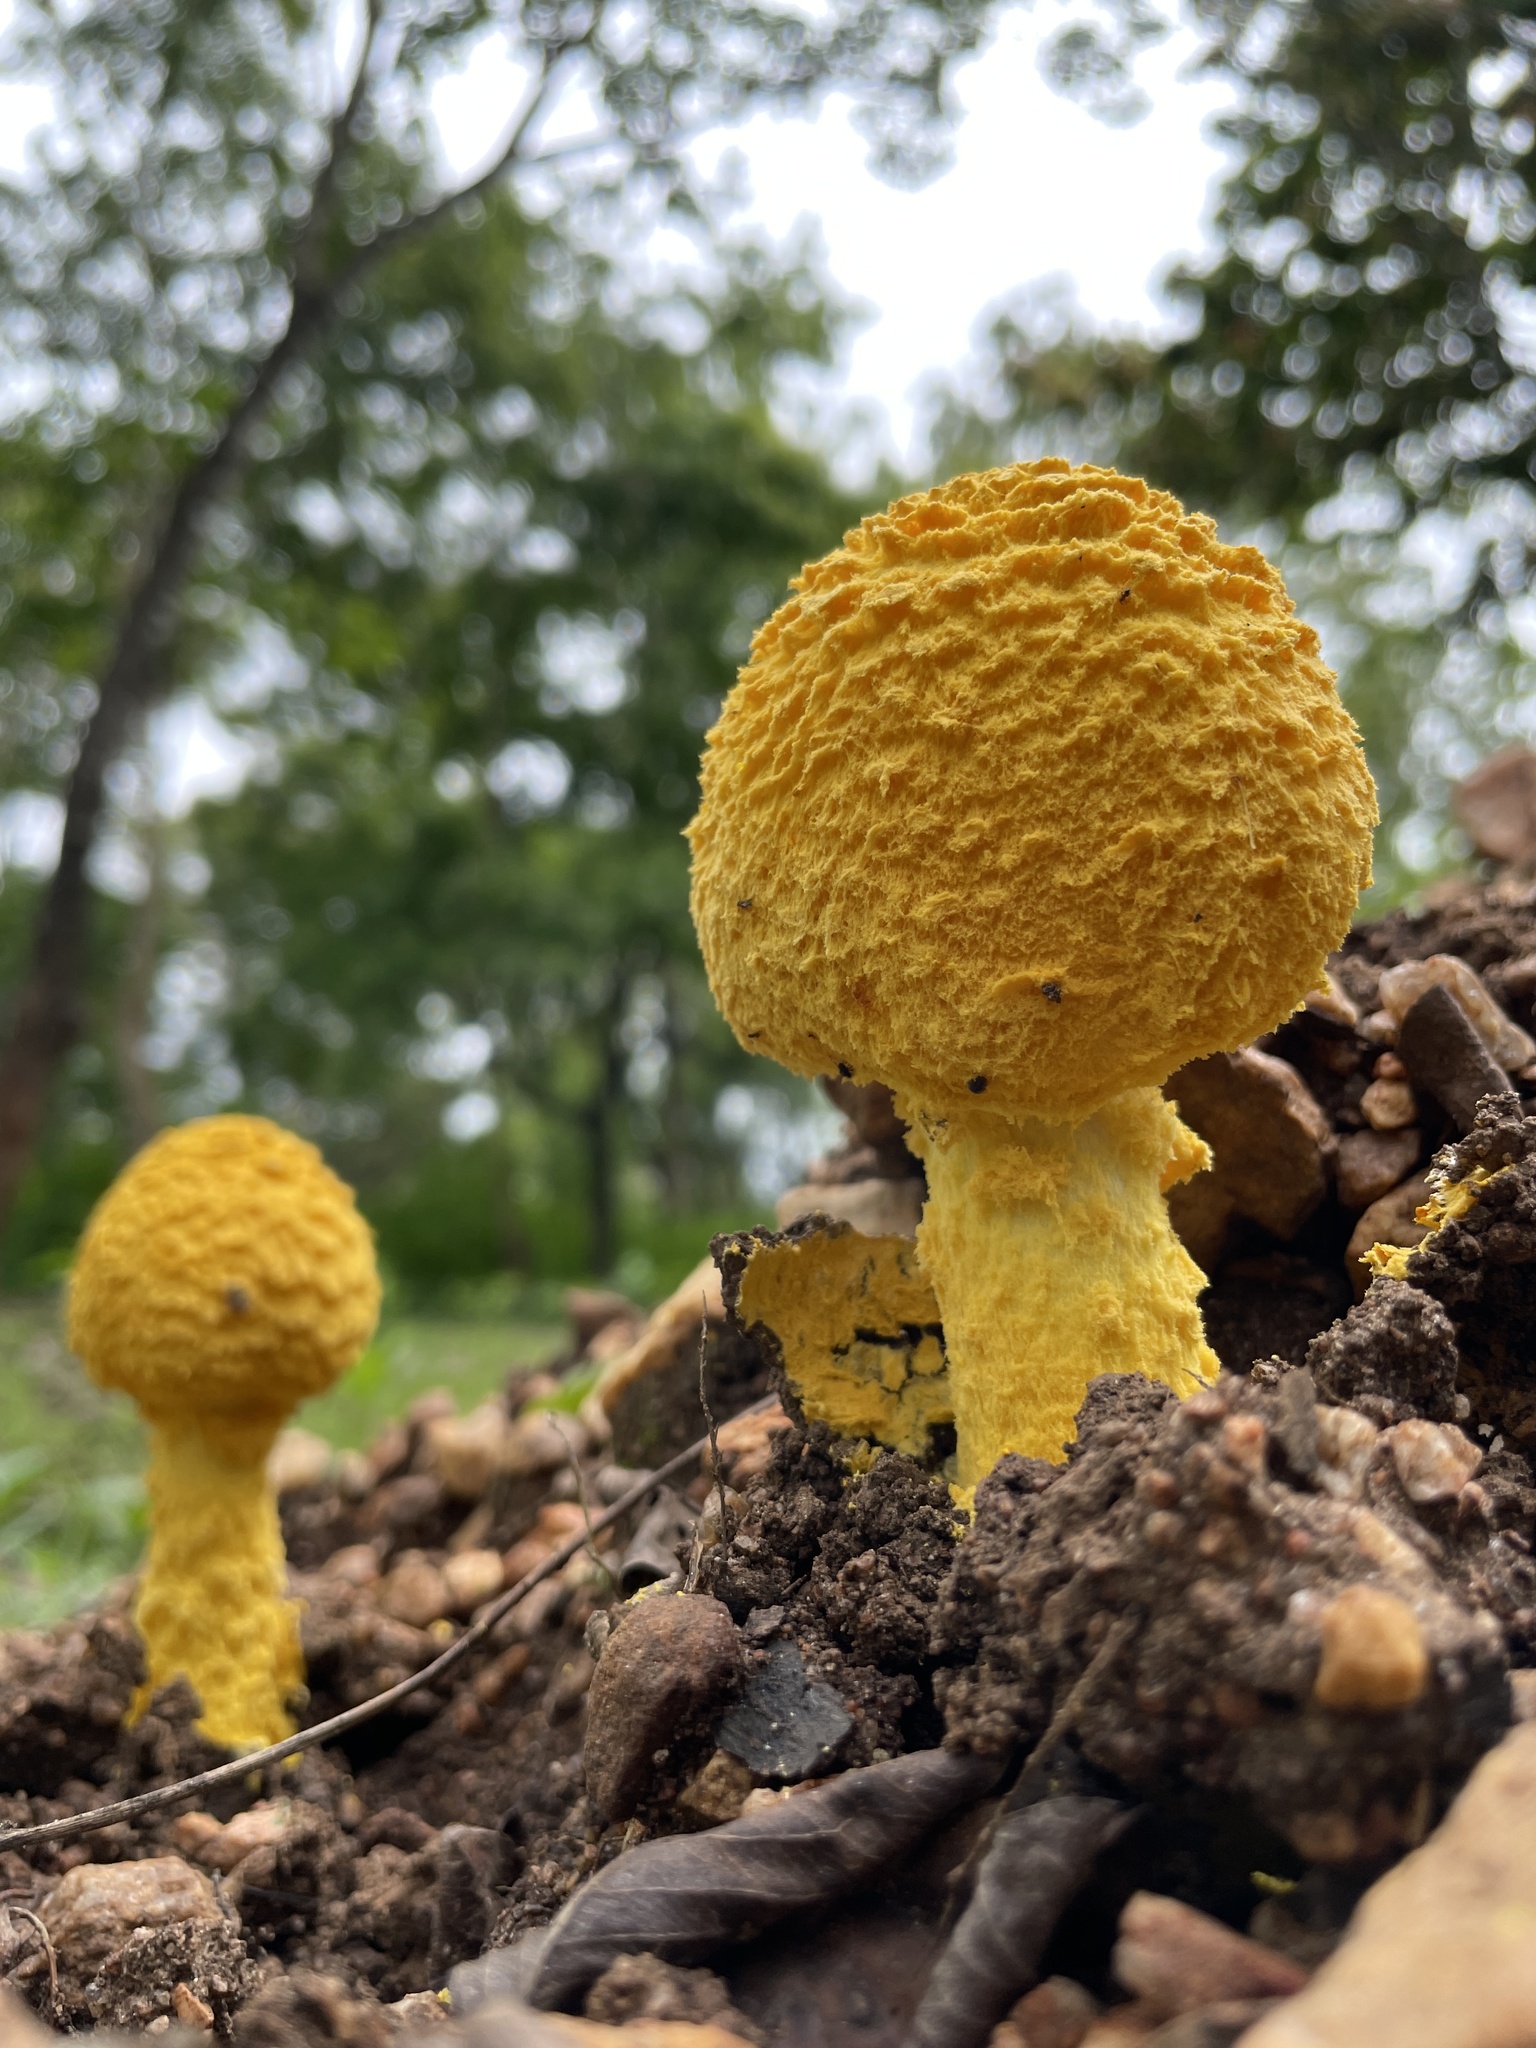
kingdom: Fungi
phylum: Basidiomycota
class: Agaricomycetes
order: Agaricales
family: Amanitaceae
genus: Aspidella
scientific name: Aspidella aureofloccosa
